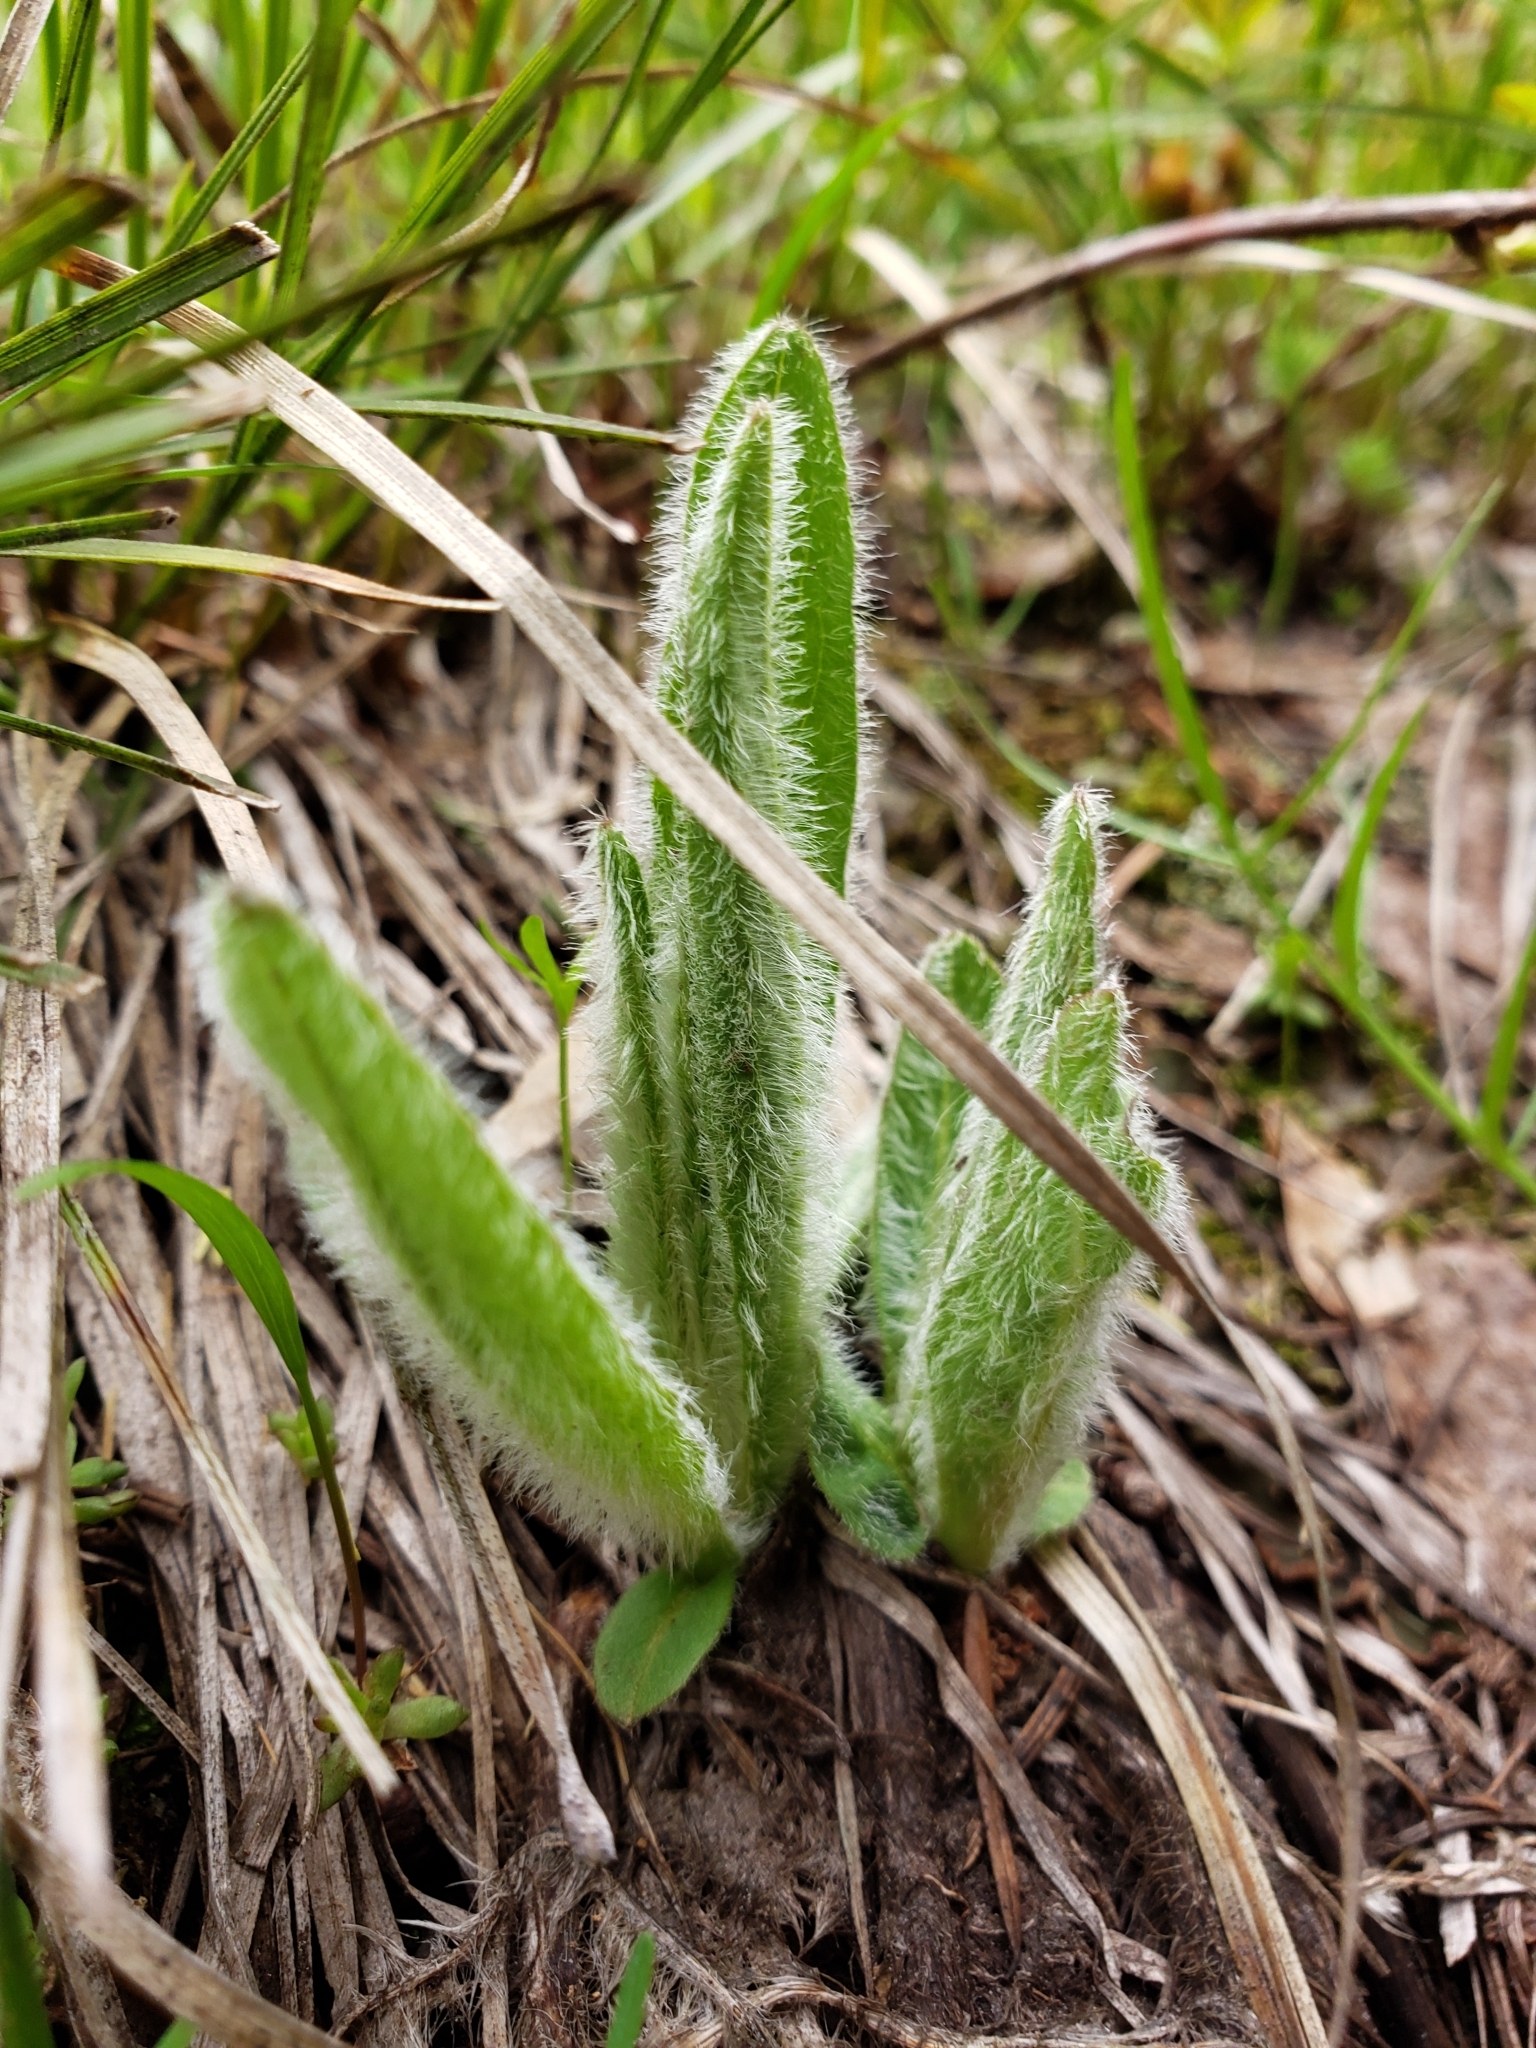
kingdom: Plantae
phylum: Tracheophyta
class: Magnoliopsida
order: Asterales
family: Asteraceae
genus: Hieracium
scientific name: Hieracium scouleri
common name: Hound's-tongue hawkweed
